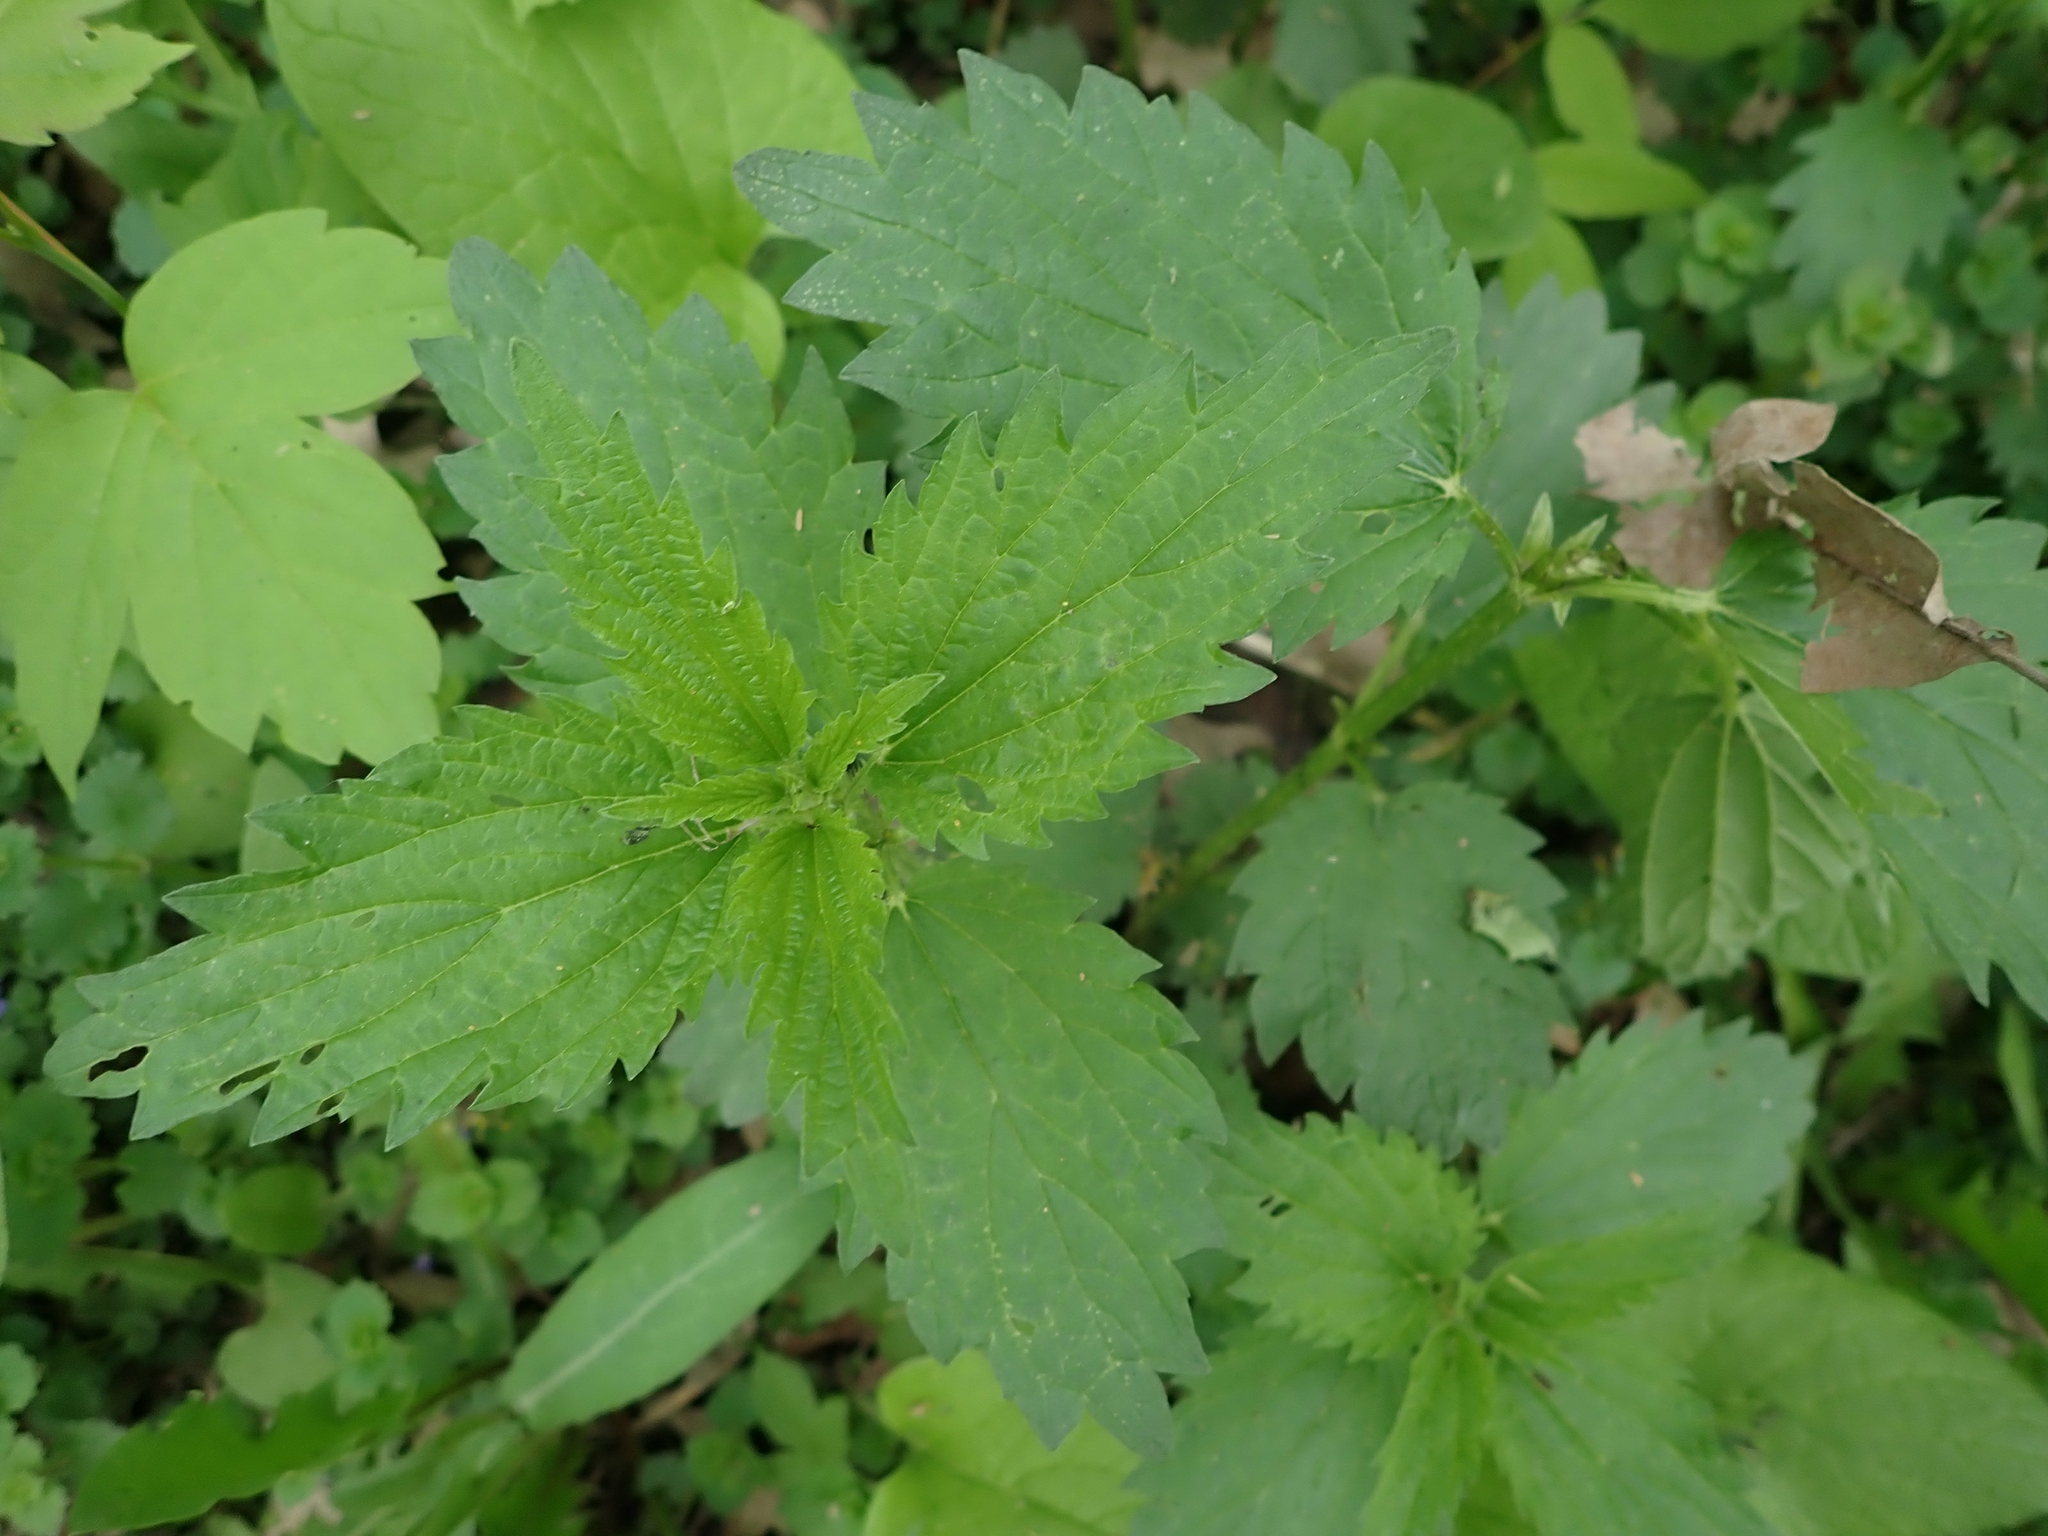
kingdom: Plantae
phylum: Tracheophyta
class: Magnoliopsida
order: Rosales
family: Urticaceae
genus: Urtica
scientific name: Urtica gracilis
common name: Slender stinging nettle
